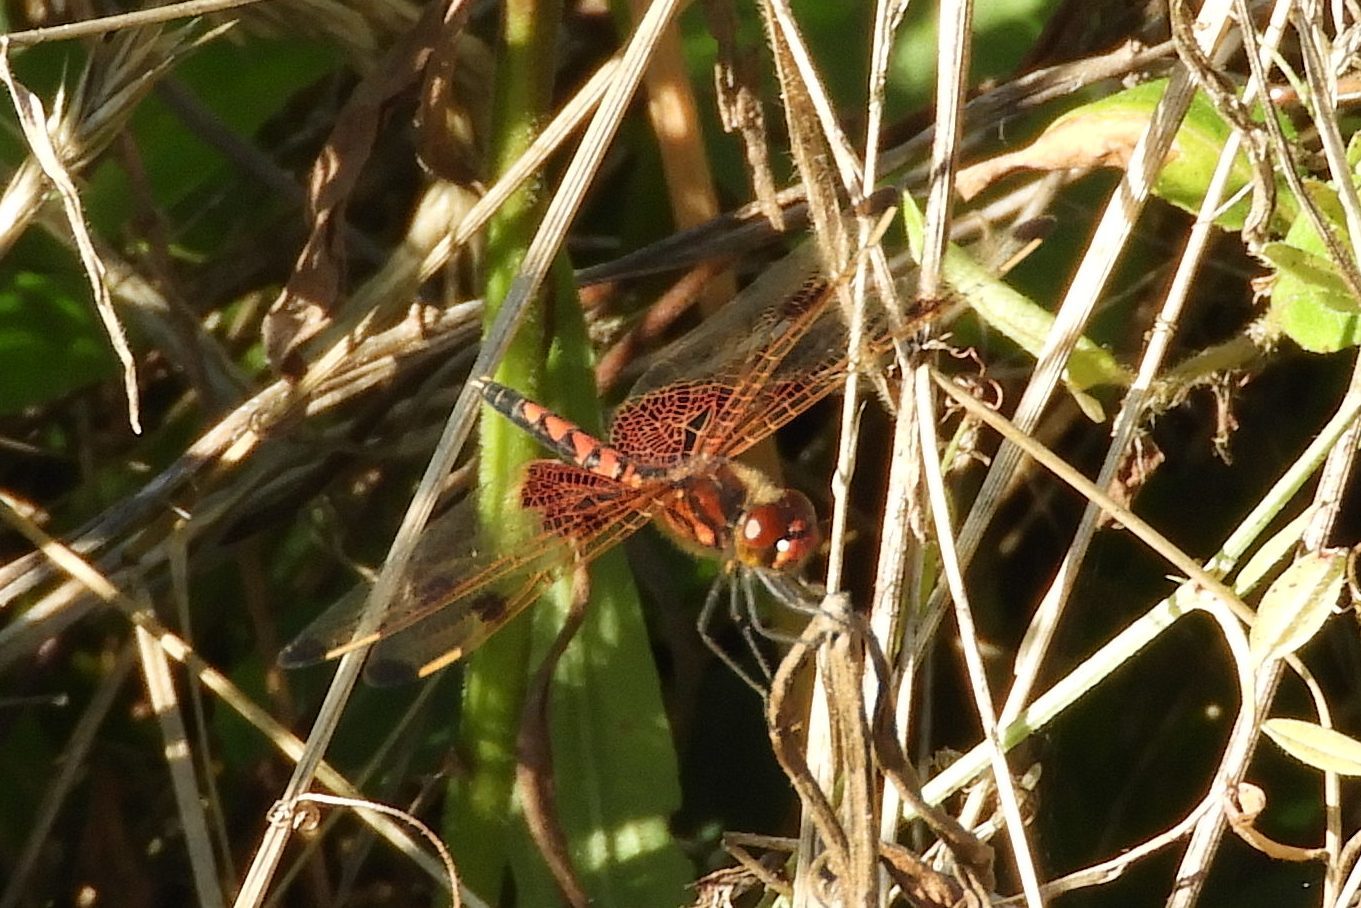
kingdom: Animalia
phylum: Arthropoda
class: Insecta
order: Odonata
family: Libellulidae
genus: Celithemis
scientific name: Celithemis elisa
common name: Calico pennant
